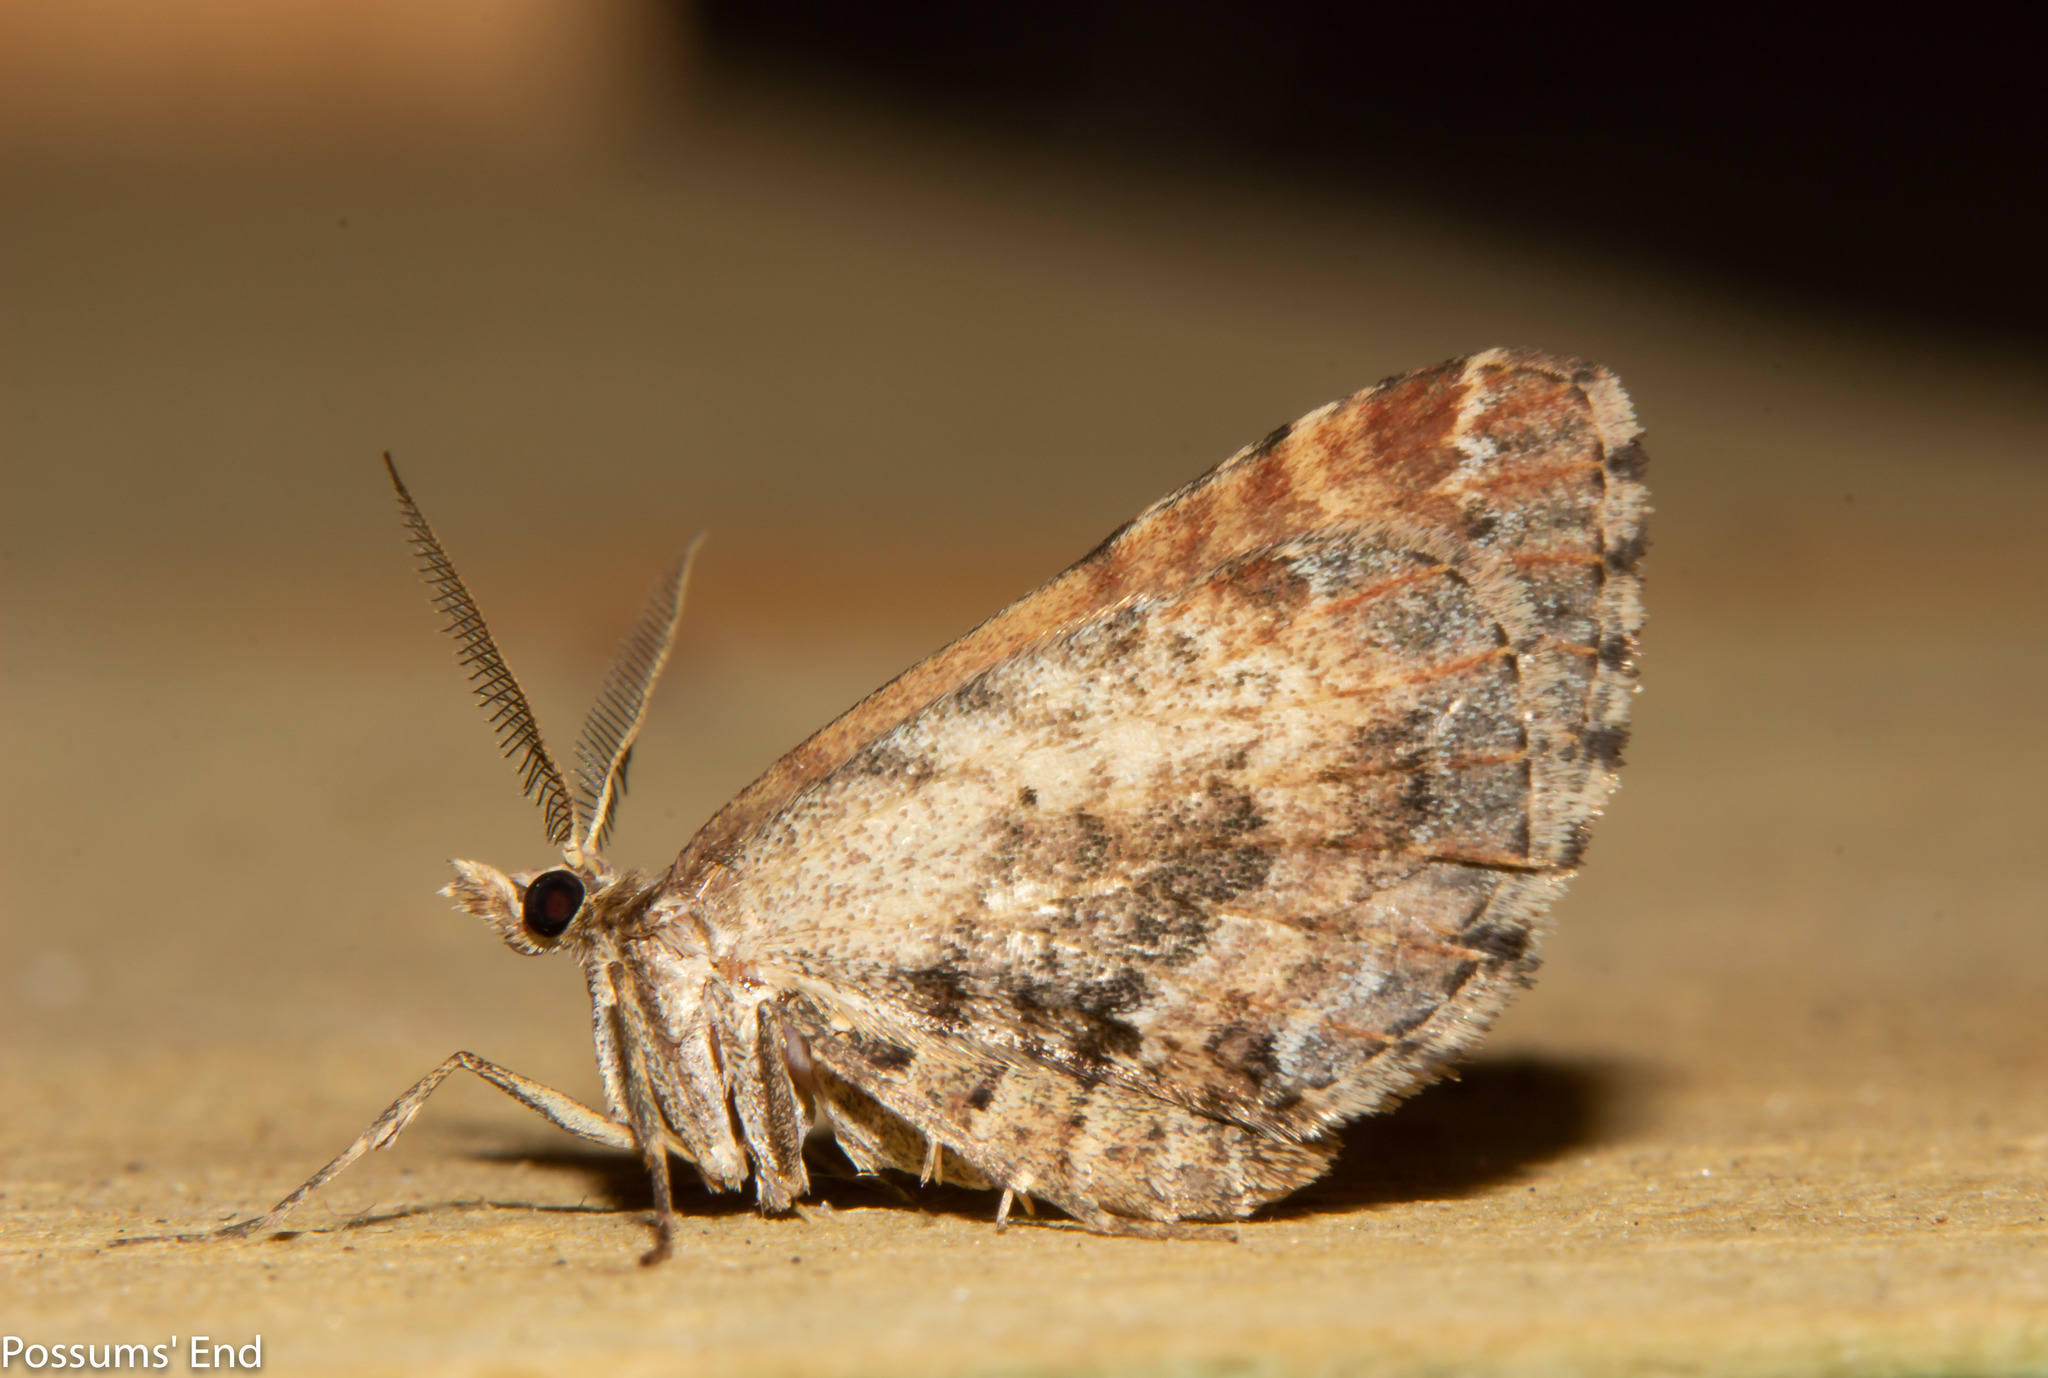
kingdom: Animalia
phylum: Arthropoda
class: Insecta
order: Lepidoptera
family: Geometridae
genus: Asaphodes
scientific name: Asaphodes aegrota
